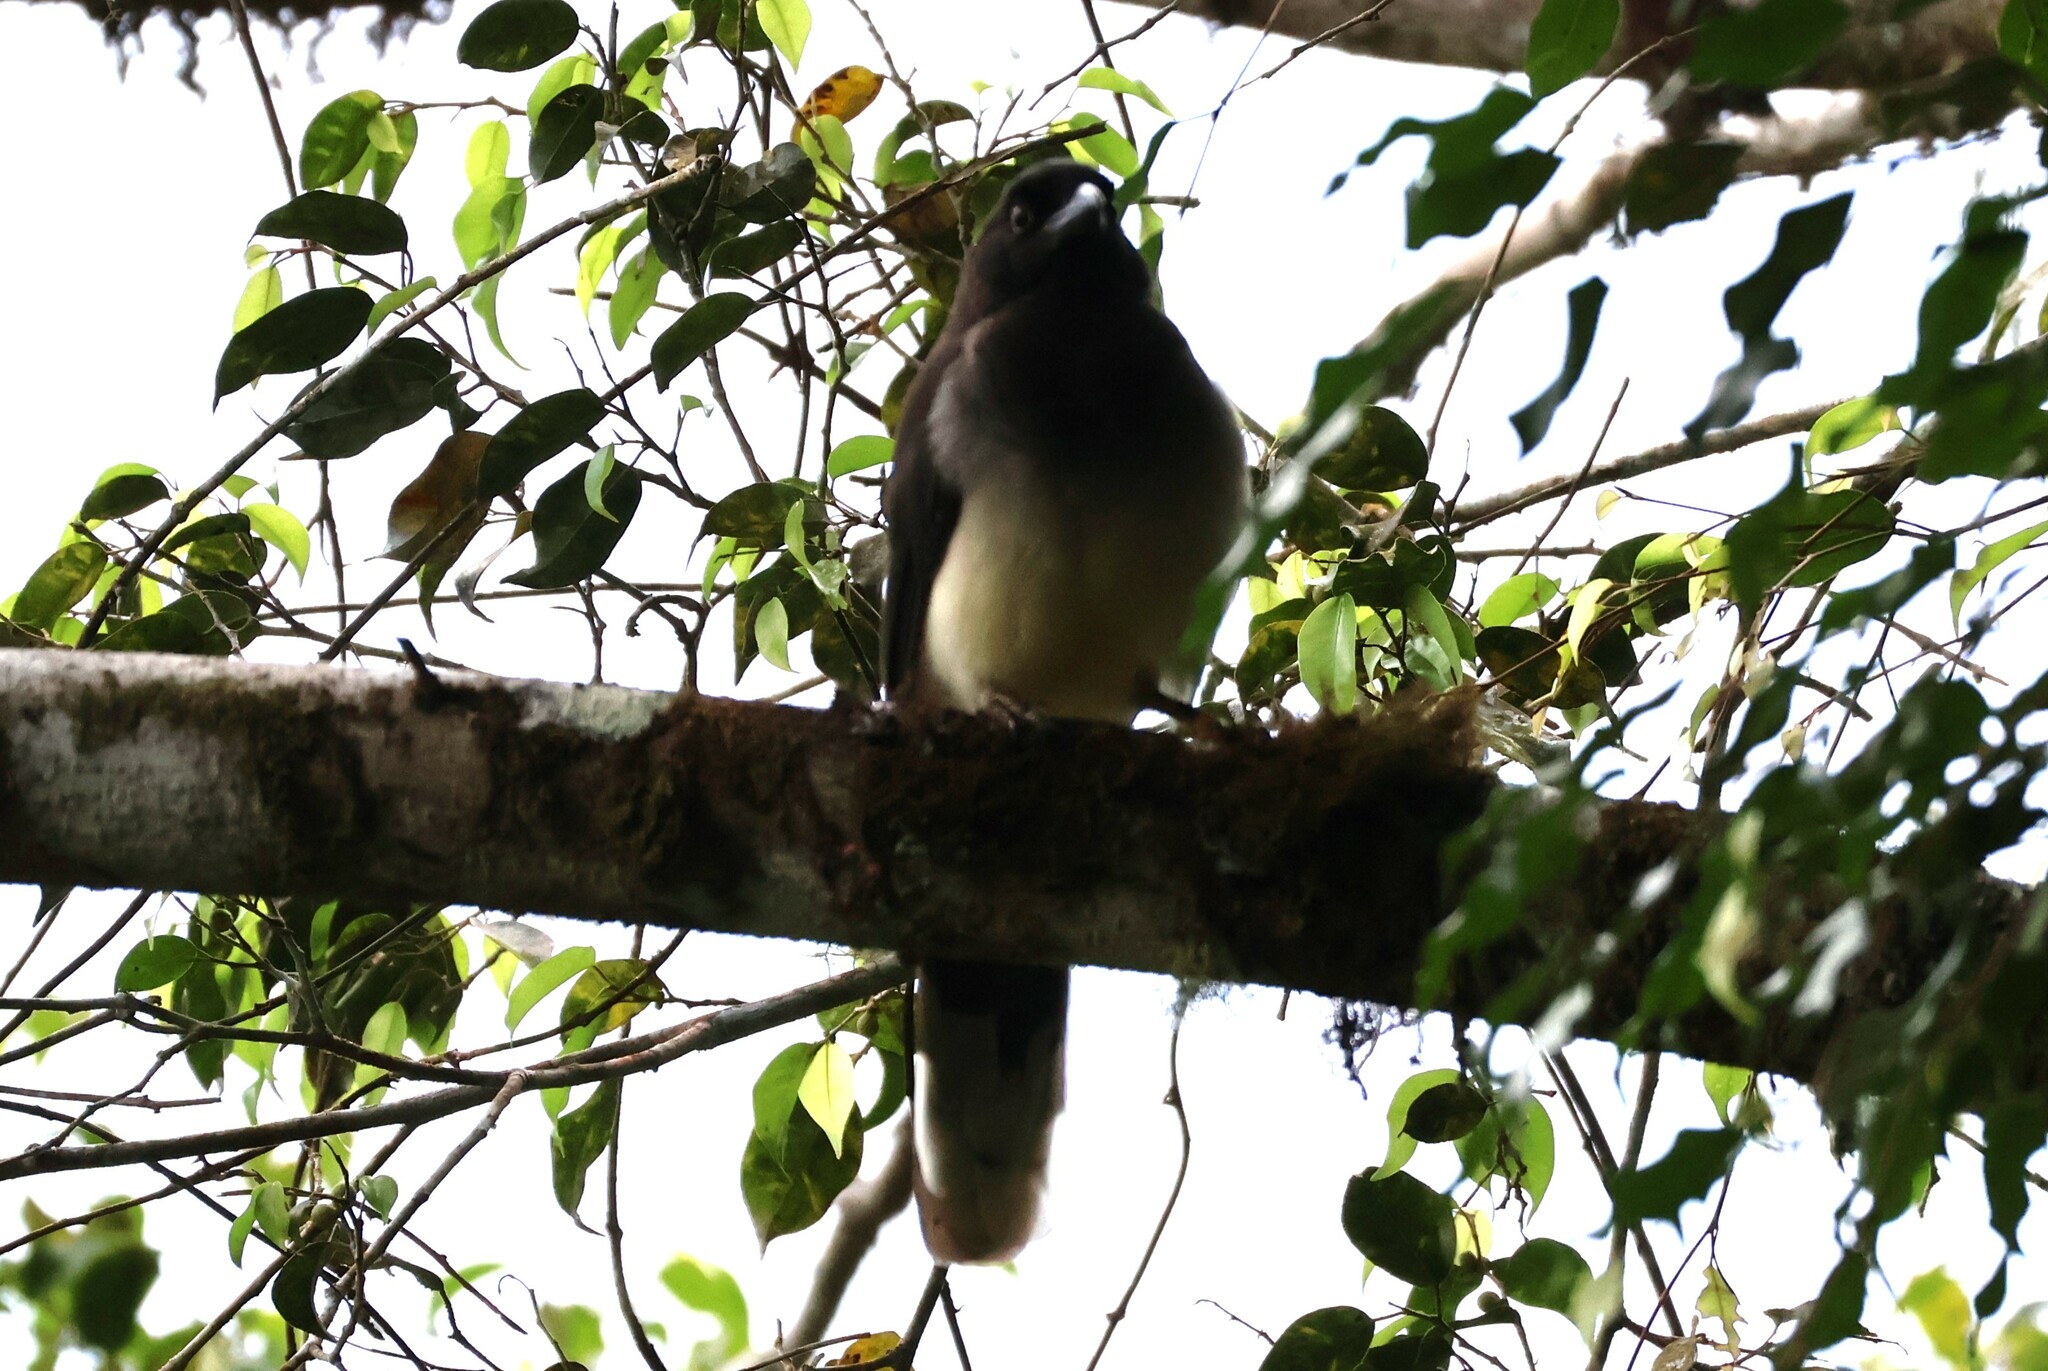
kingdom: Animalia
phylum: Chordata
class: Aves
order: Passeriformes
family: Corvidae
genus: Psilorhinus
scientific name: Psilorhinus morio
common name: Brown jay
